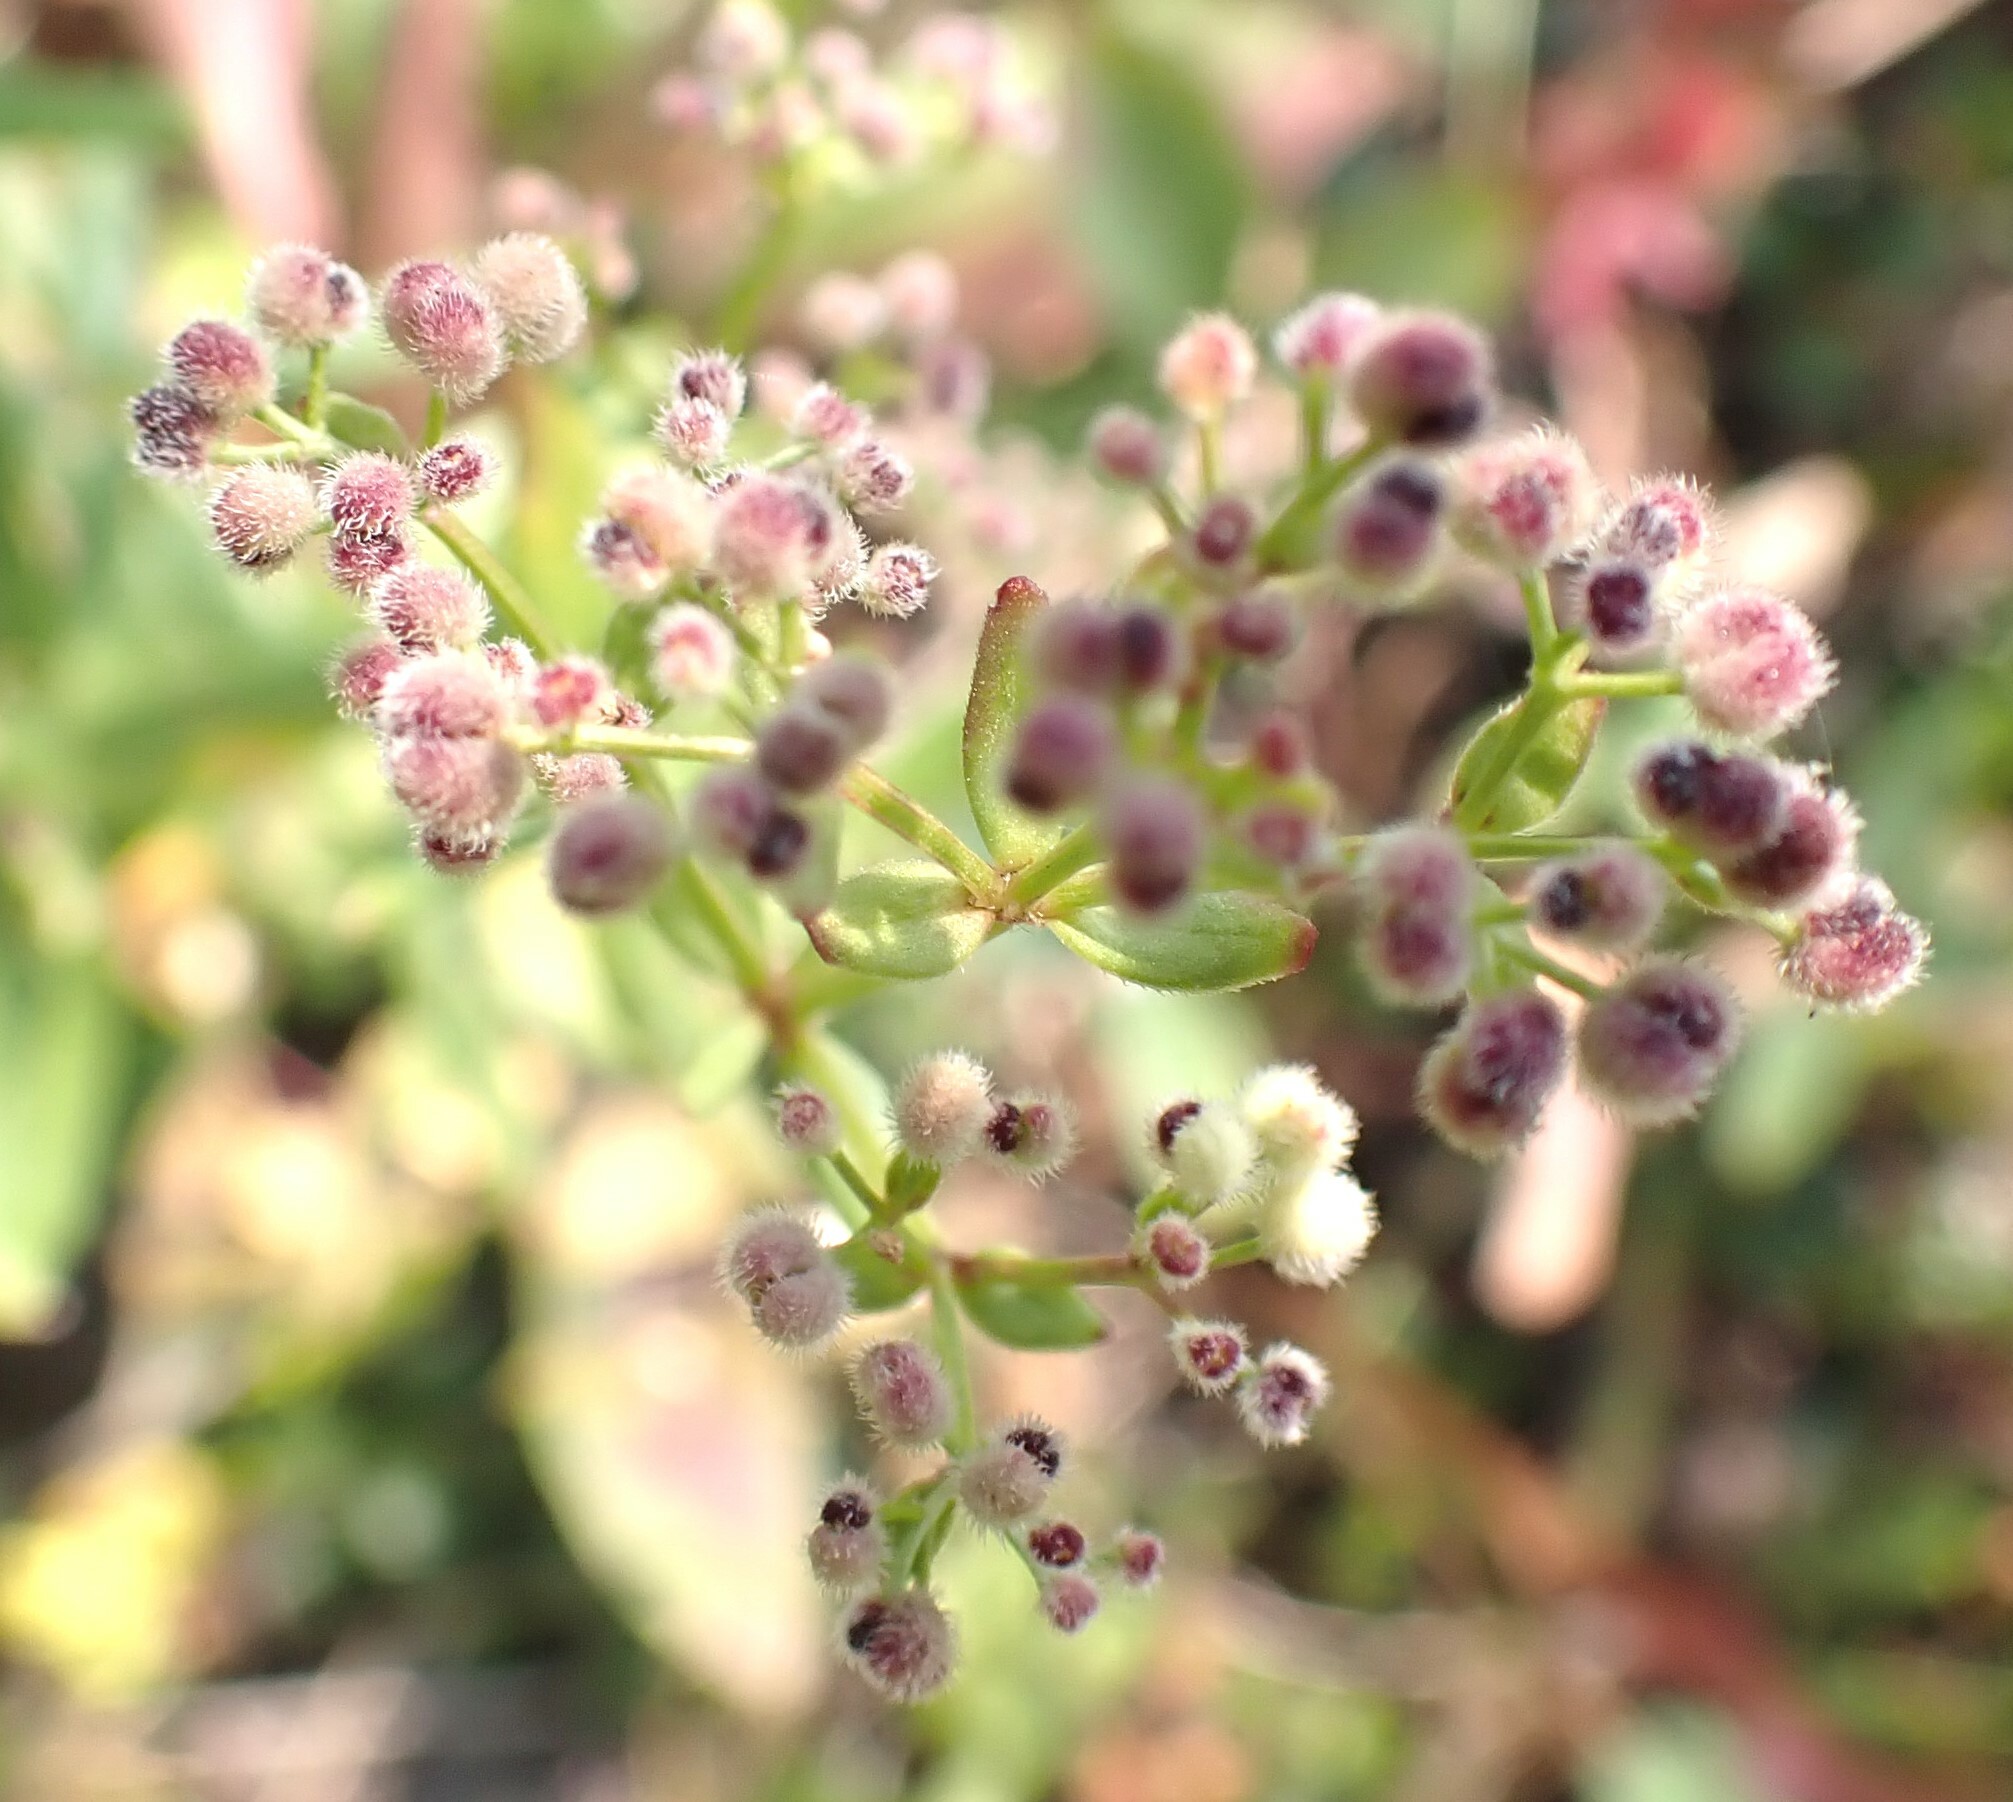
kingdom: Plantae
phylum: Tracheophyta
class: Magnoliopsida
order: Gentianales
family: Rubiaceae
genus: Galium
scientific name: Galium boreale
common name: Northern bedstraw
